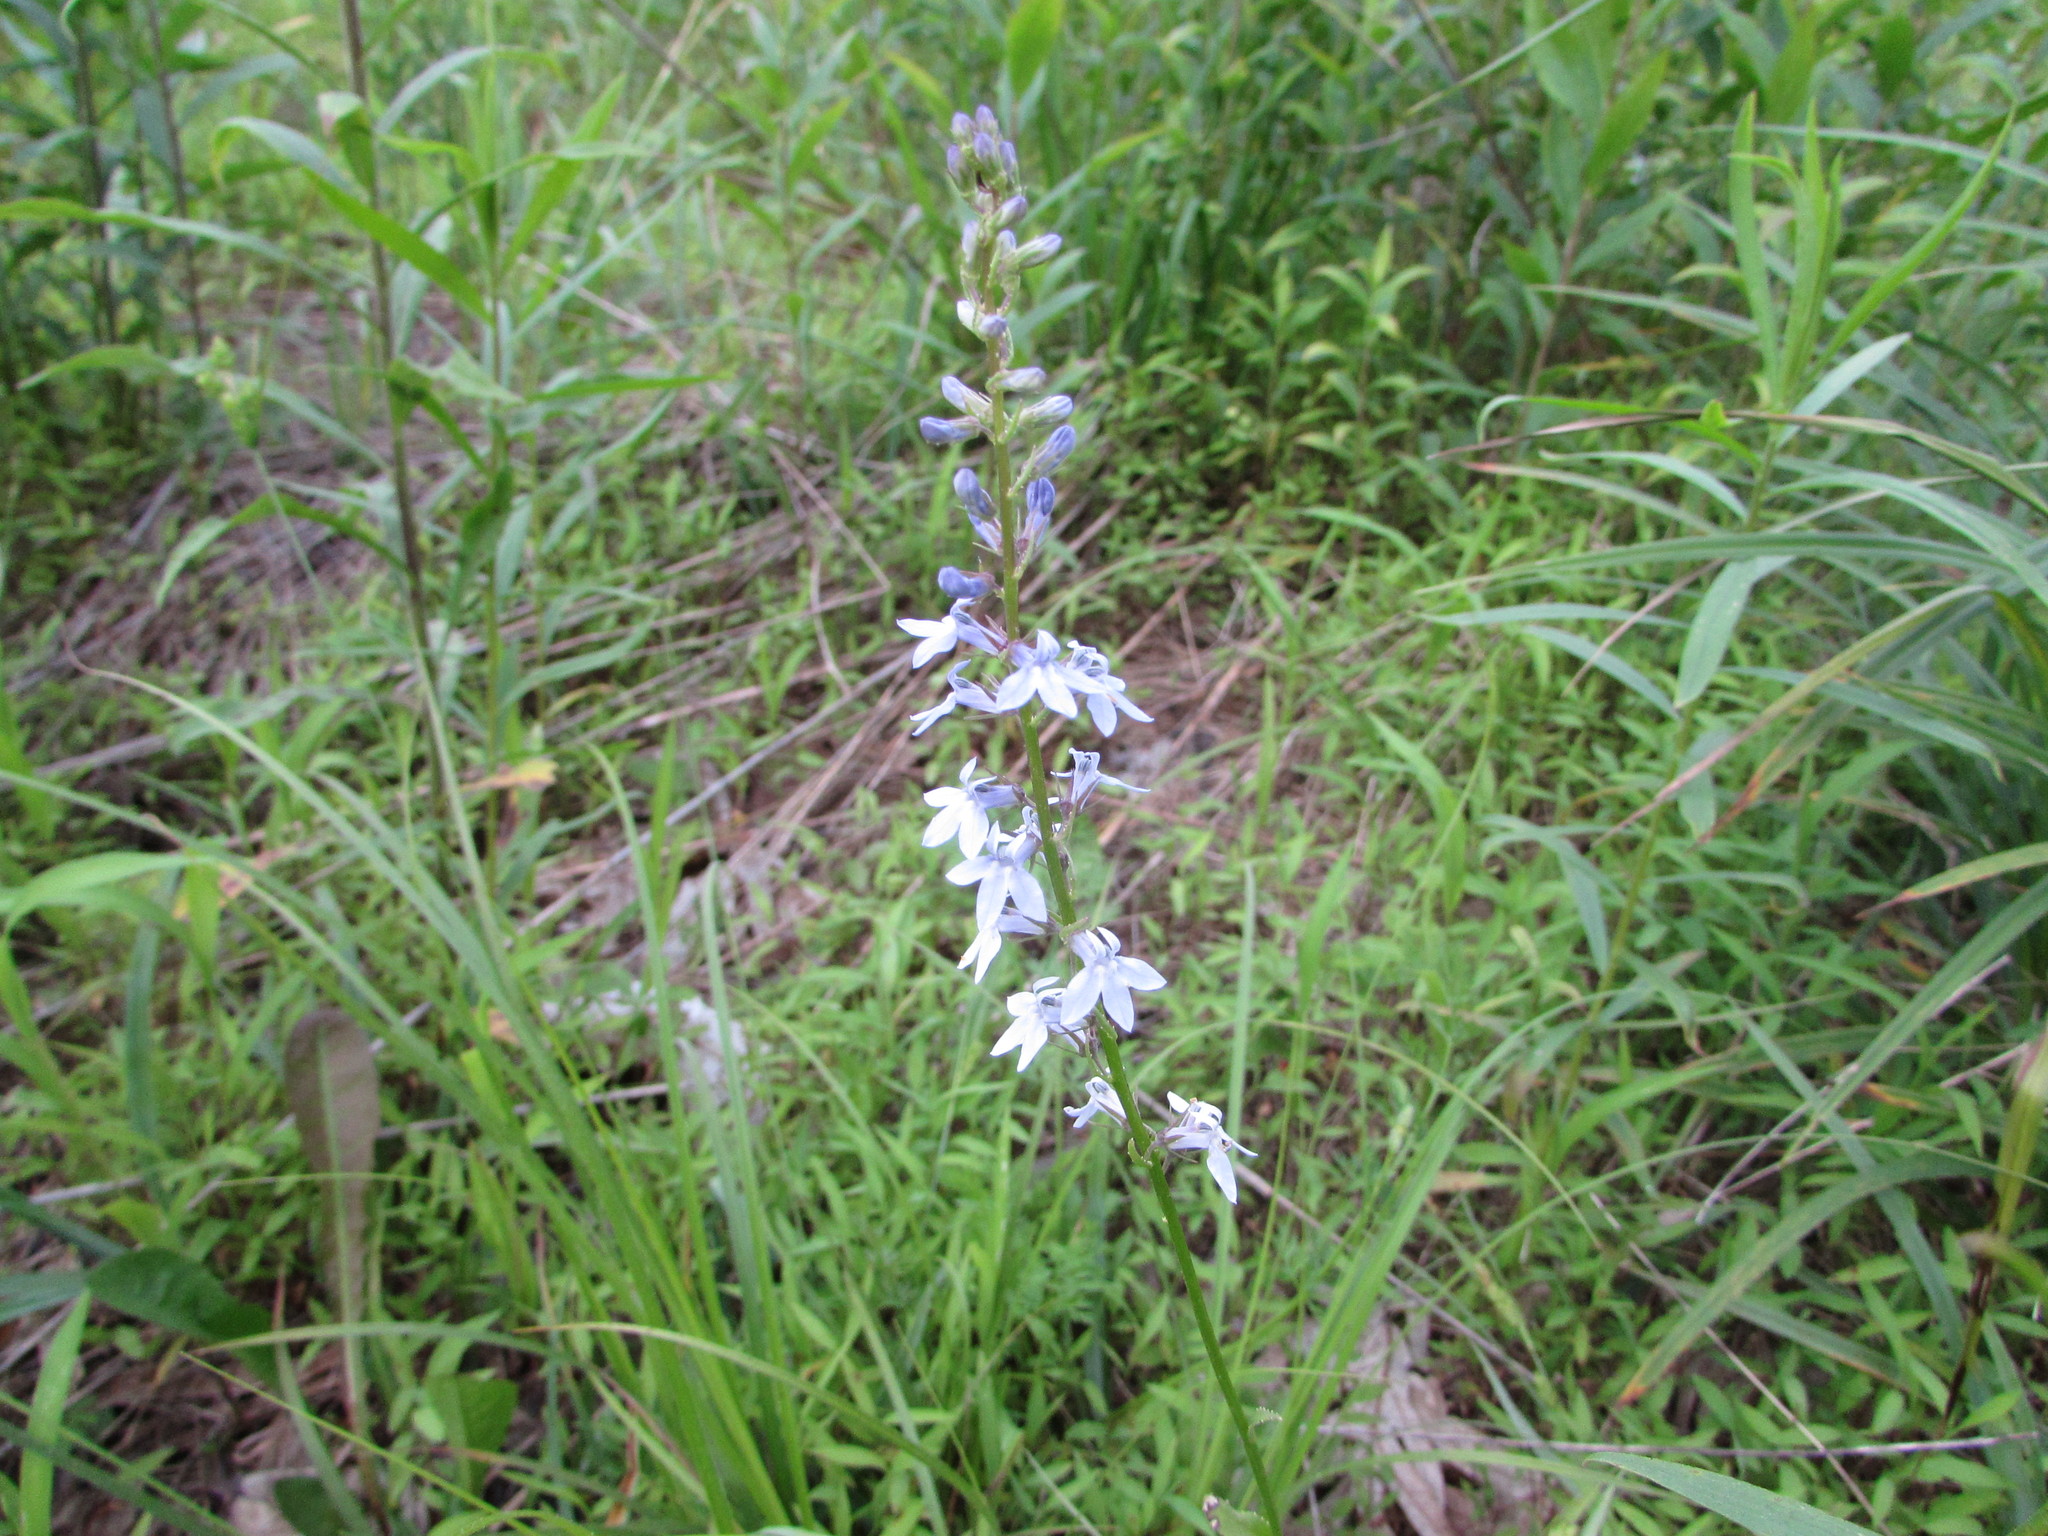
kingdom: Plantae
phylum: Tracheophyta
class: Magnoliopsida
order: Asterales
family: Campanulaceae
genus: Lobelia
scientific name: Lobelia spicata
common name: Pale-spike lobelia
